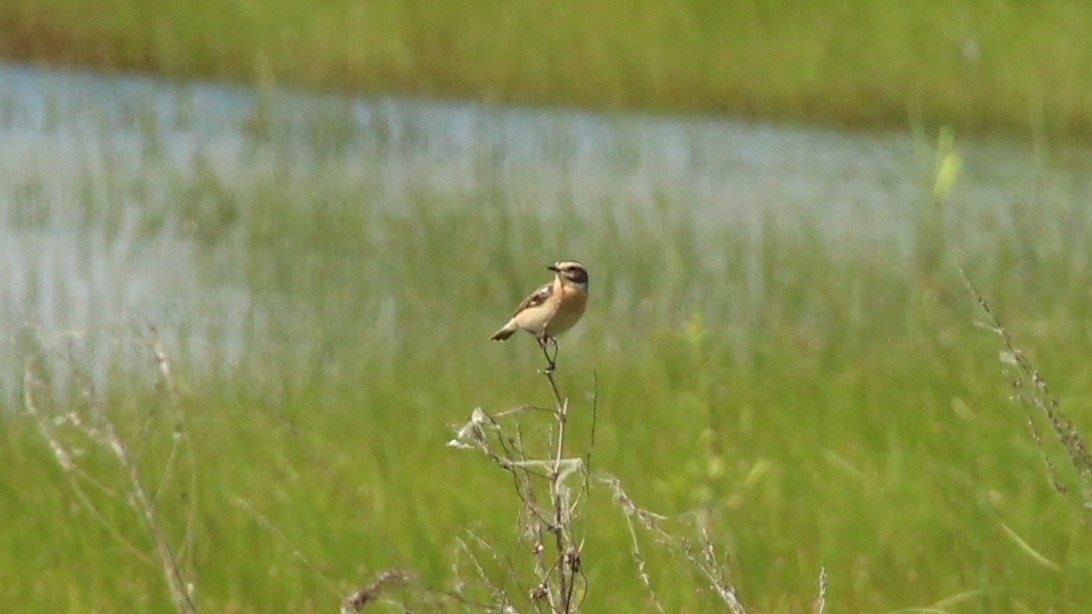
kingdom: Animalia
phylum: Chordata
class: Aves
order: Passeriformes
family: Muscicapidae
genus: Saxicola
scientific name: Saxicola rubetra
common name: Whinchat
